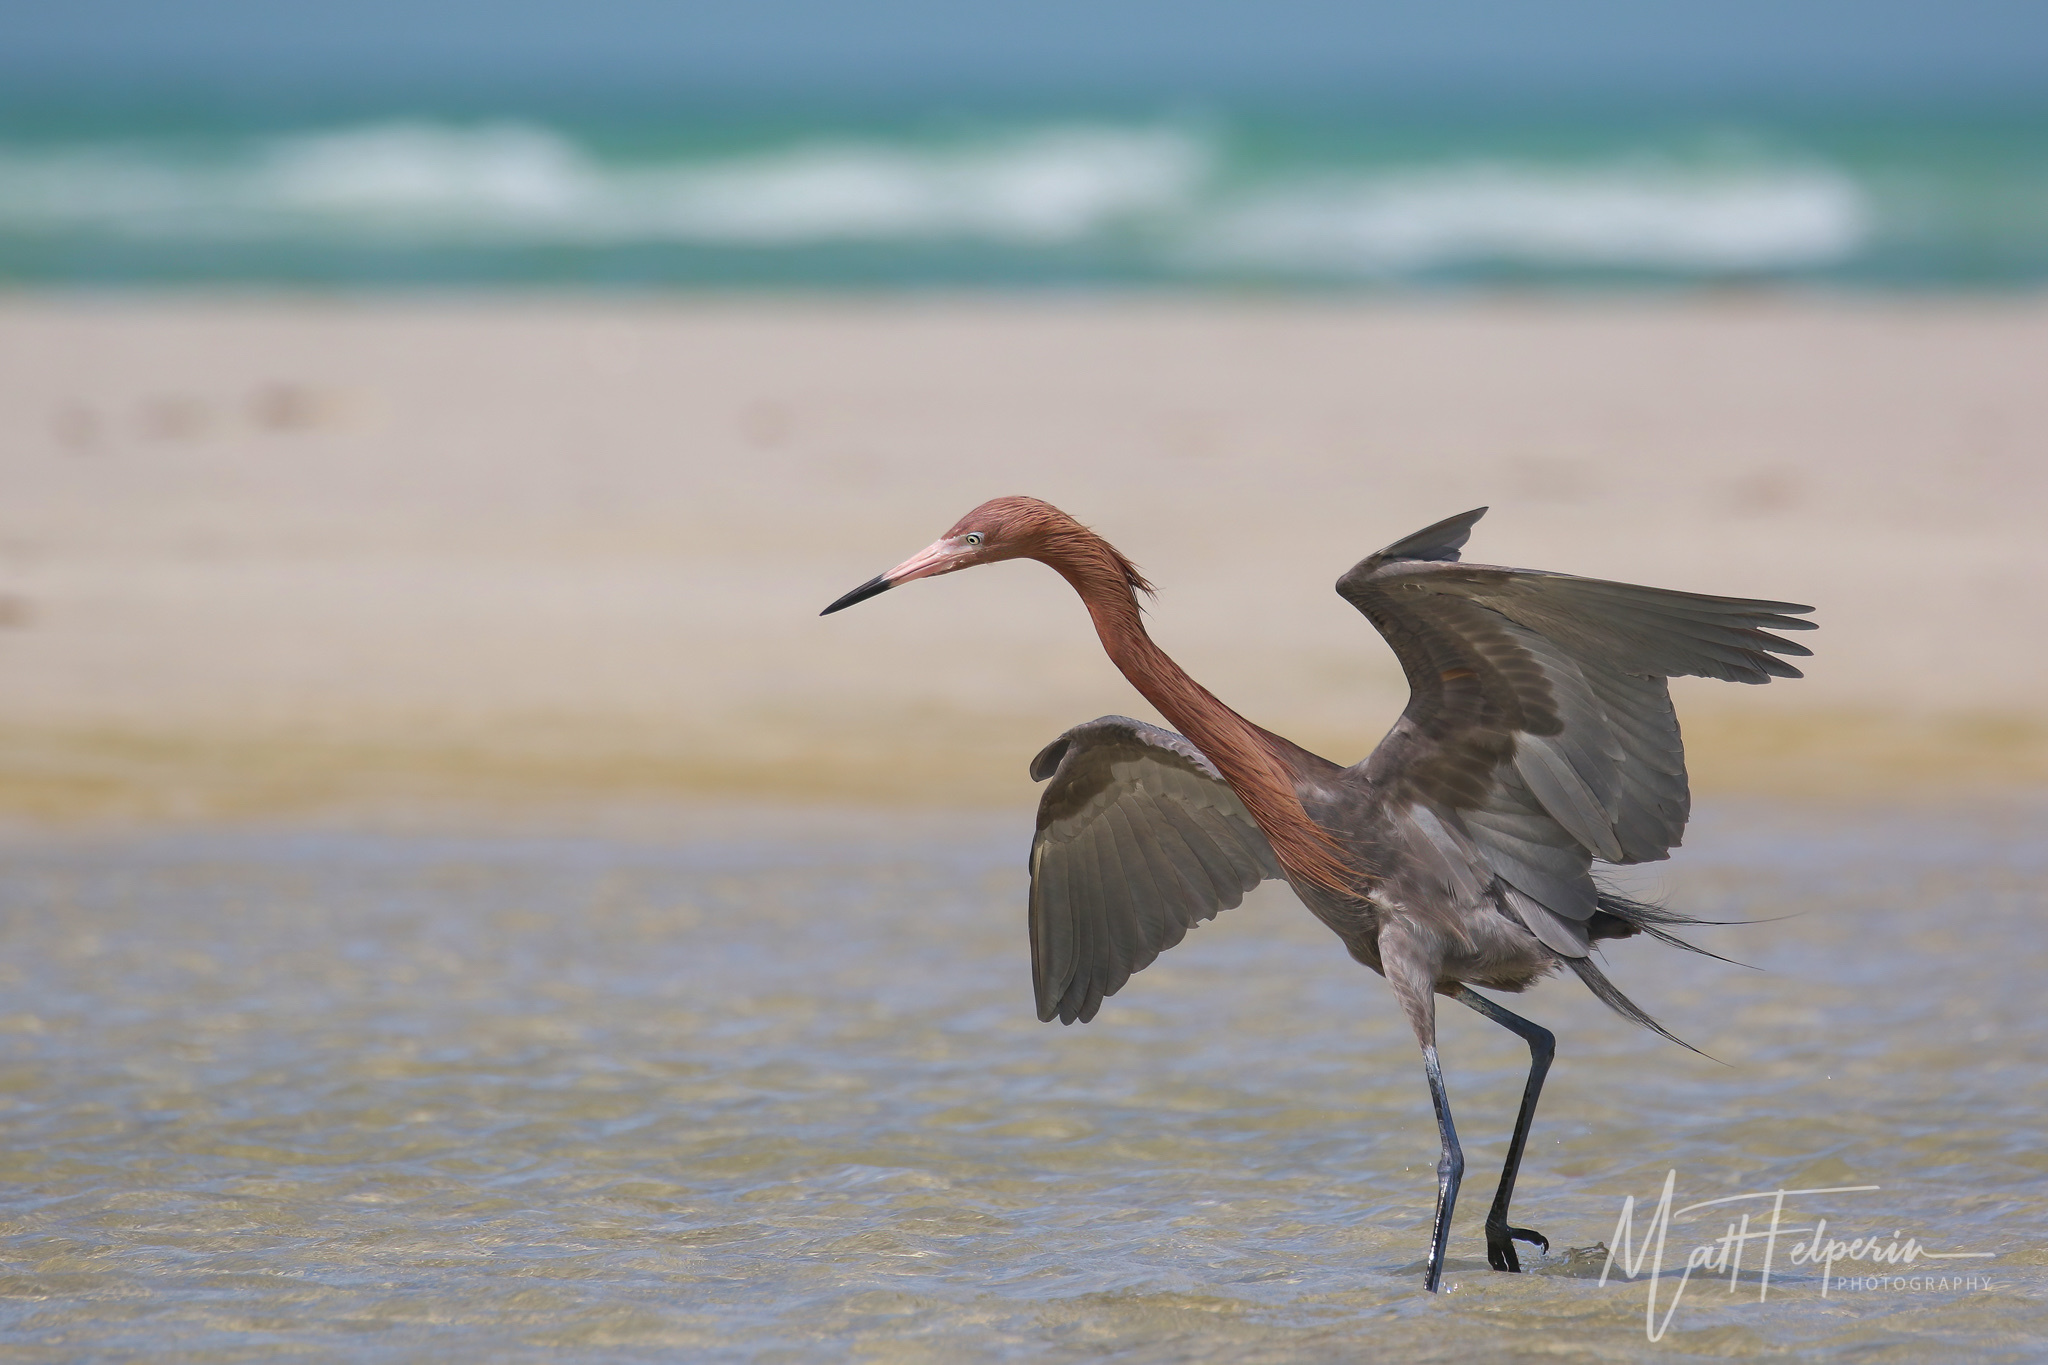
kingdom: Animalia
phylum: Chordata
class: Aves
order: Pelecaniformes
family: Ardeidae
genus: Egretta
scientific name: Egretta rufescens
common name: Reddish egret
